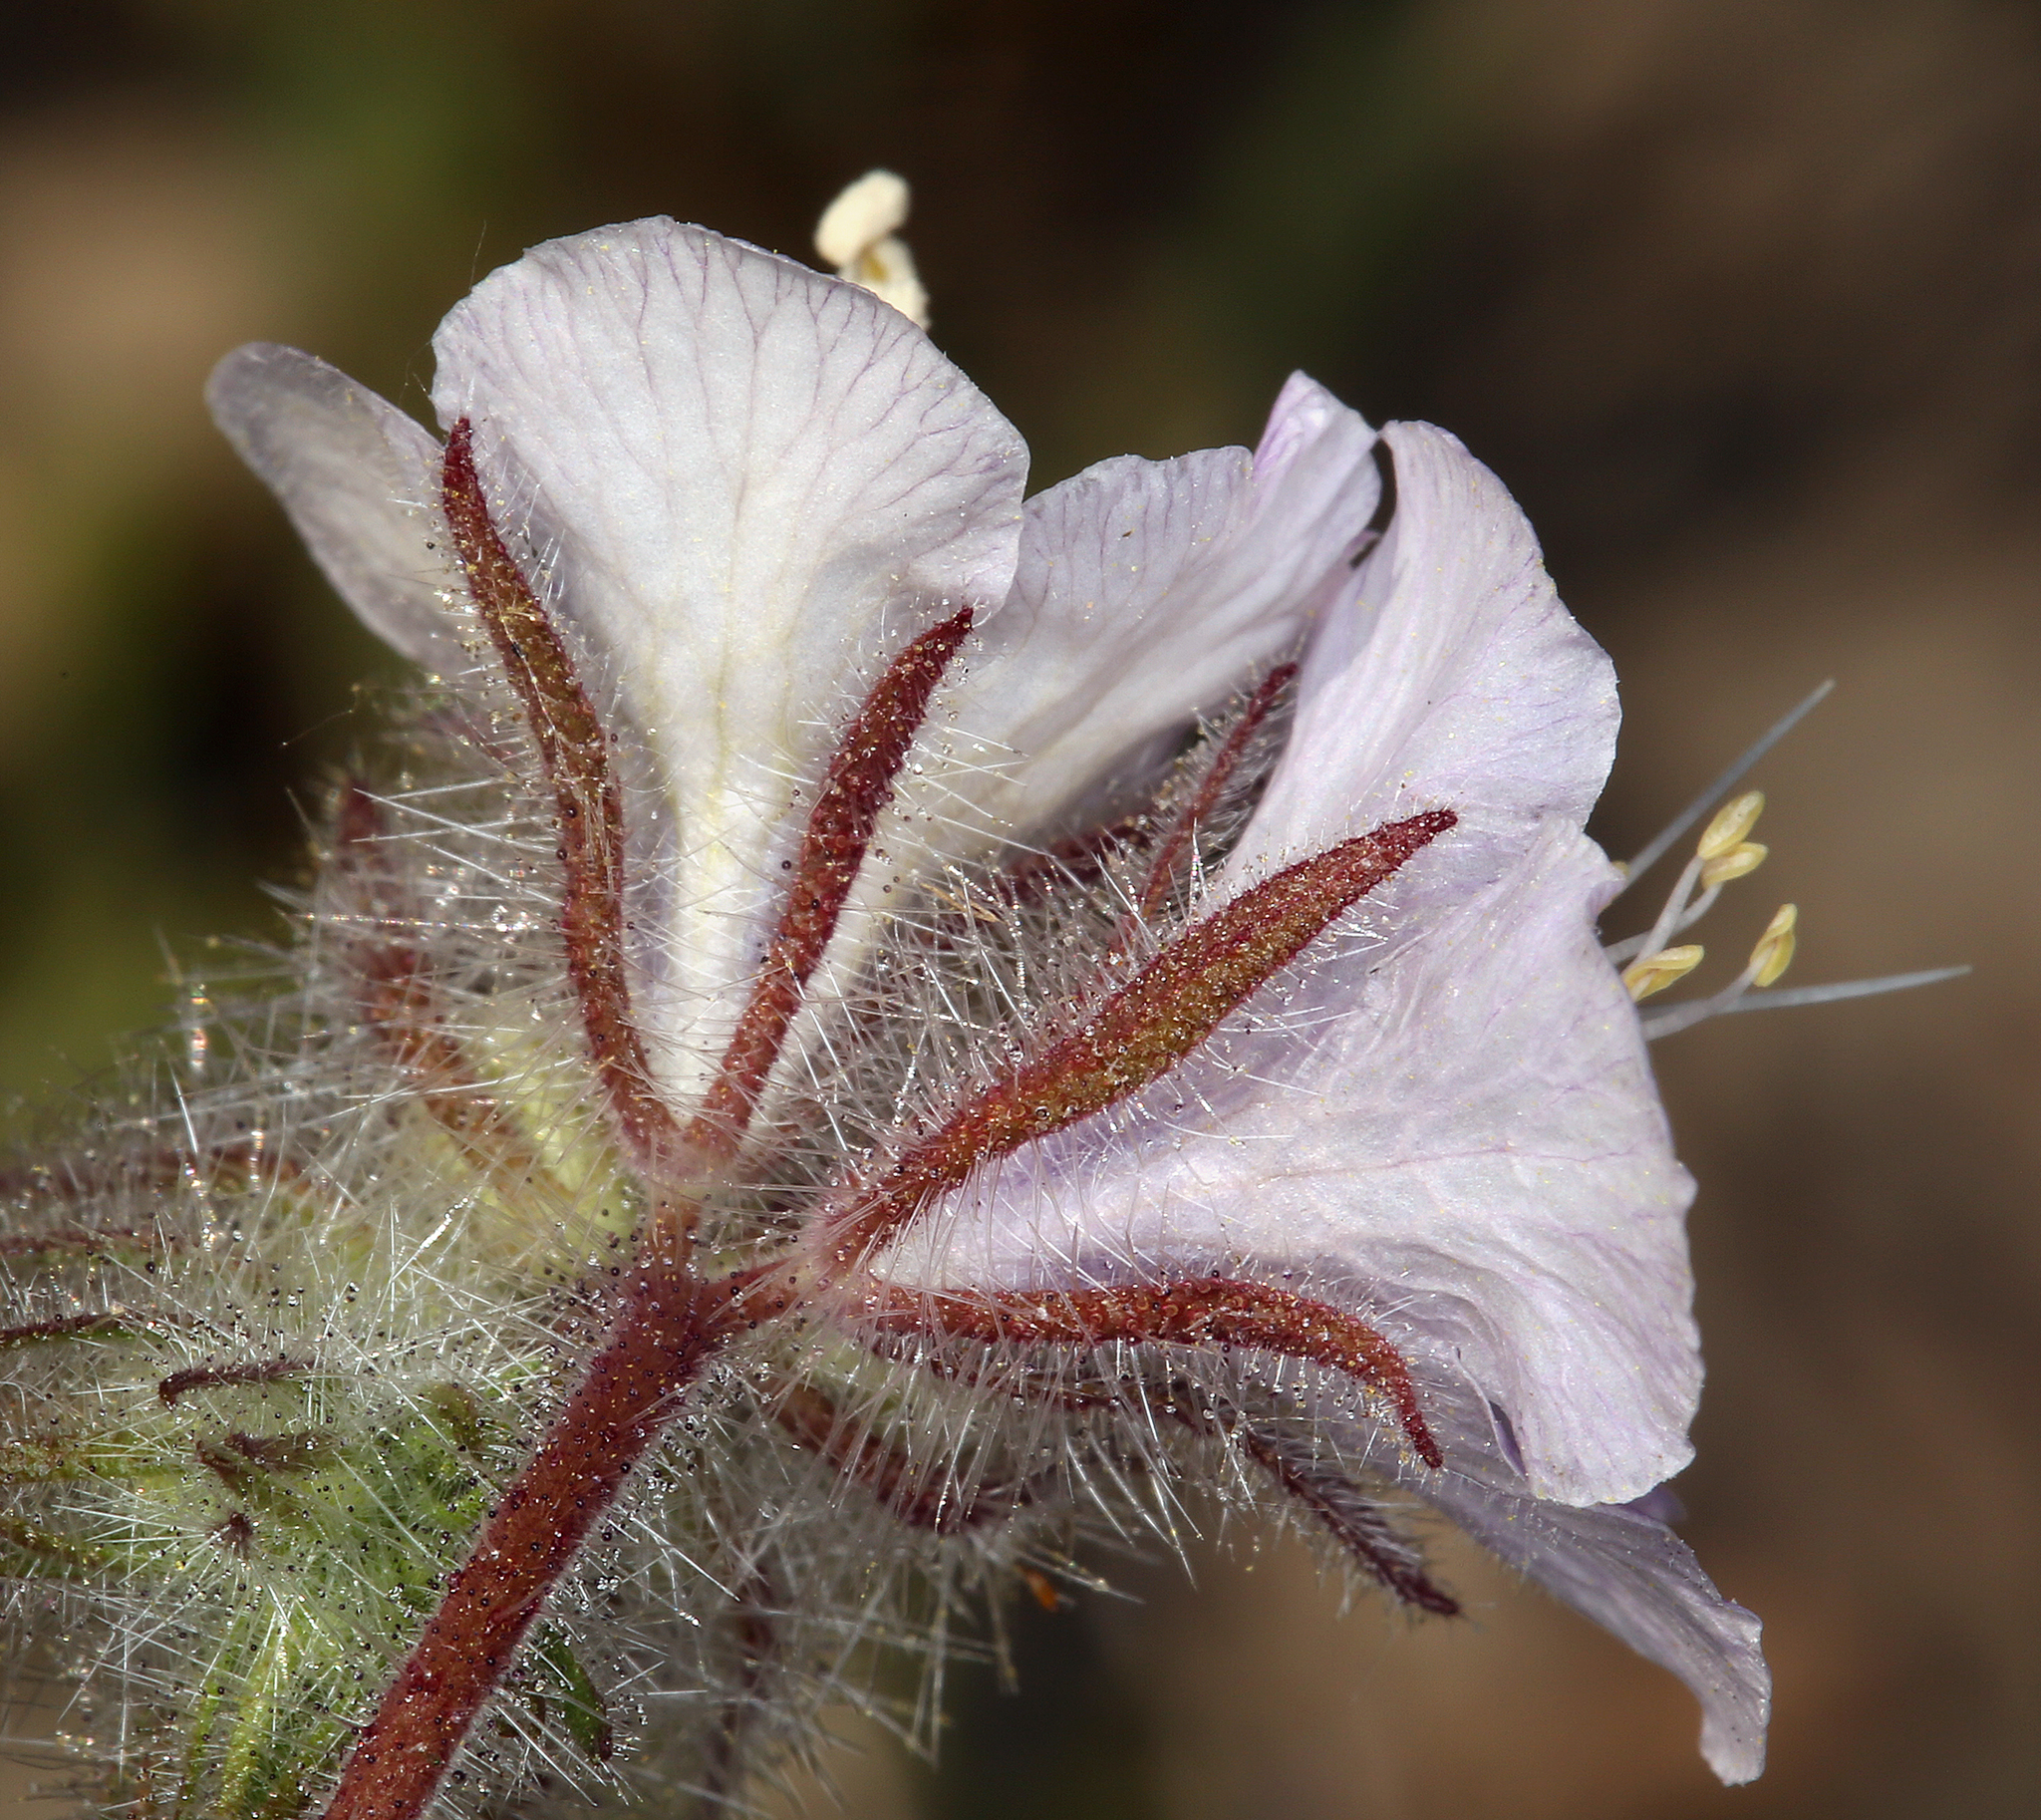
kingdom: Plantae
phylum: Tracheophyta
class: Magnoliopsida
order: Boraginales
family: Hydrophyllaceae
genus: Phacelia
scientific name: Phacelia vallis-mortae
